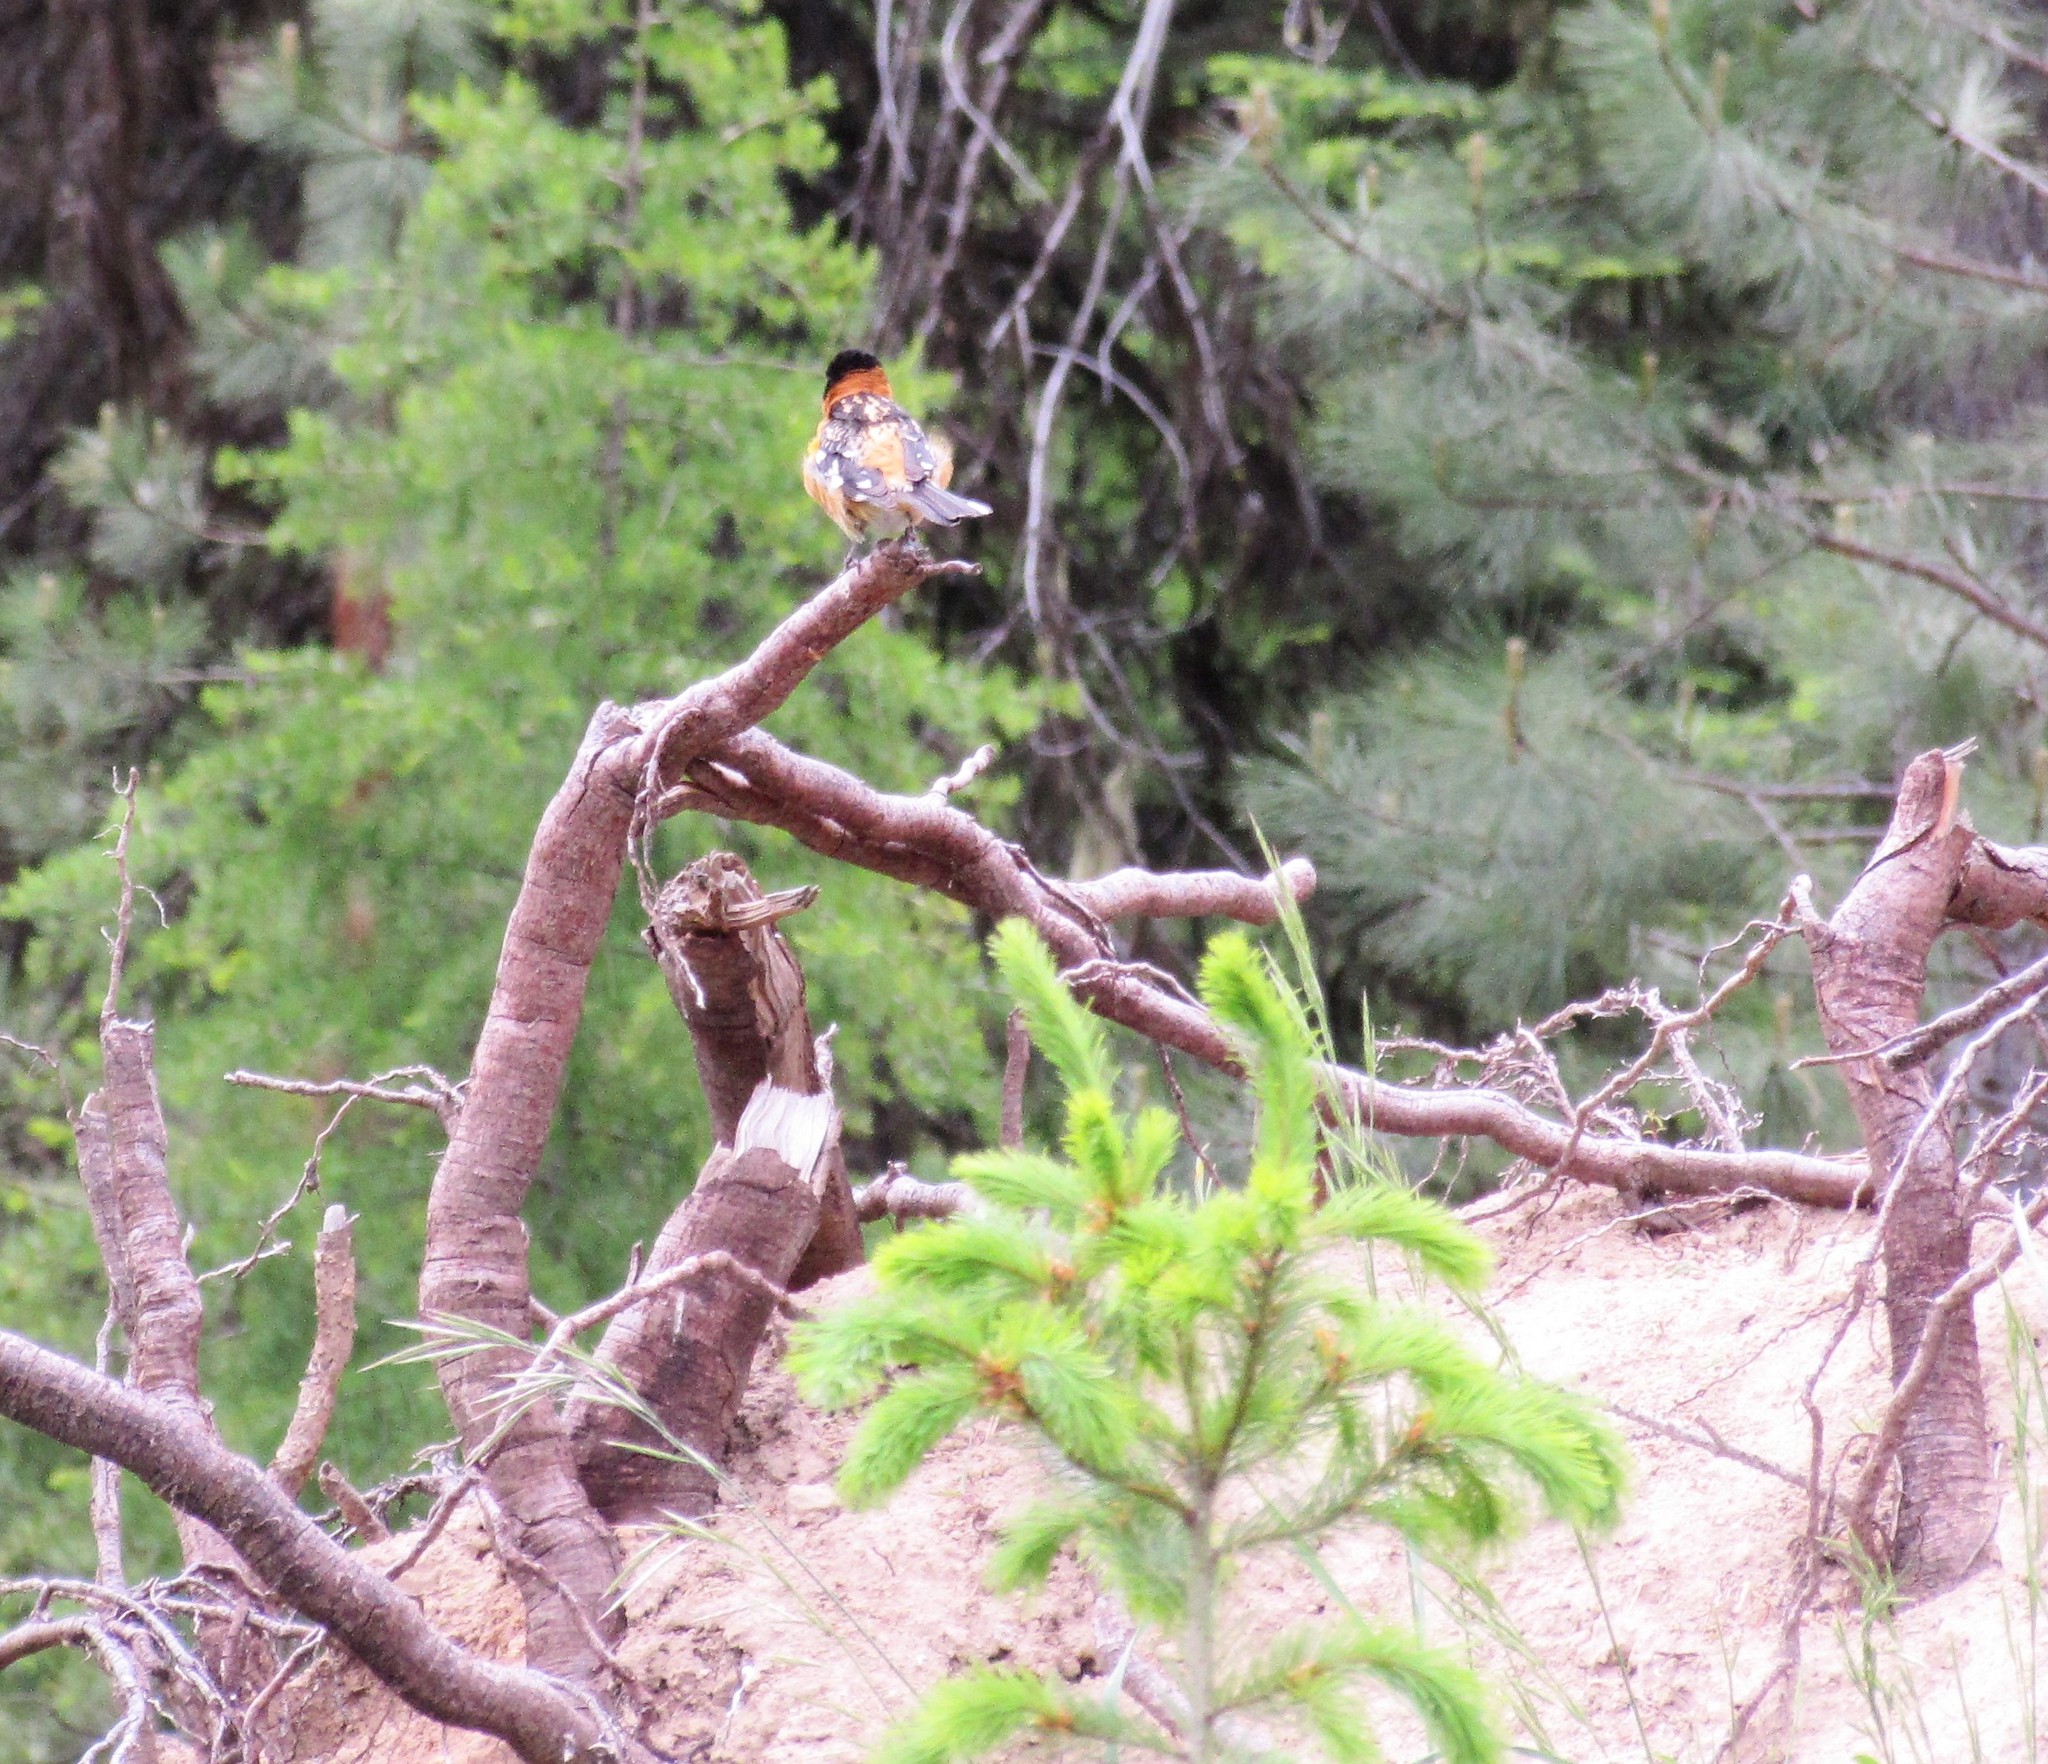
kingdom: Animalia
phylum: Chordata
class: Aves
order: Passeriformes
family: Cardinalidae
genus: Pheucticus
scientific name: Pheucticus melanocephalus
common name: Black-headed grosbeak
